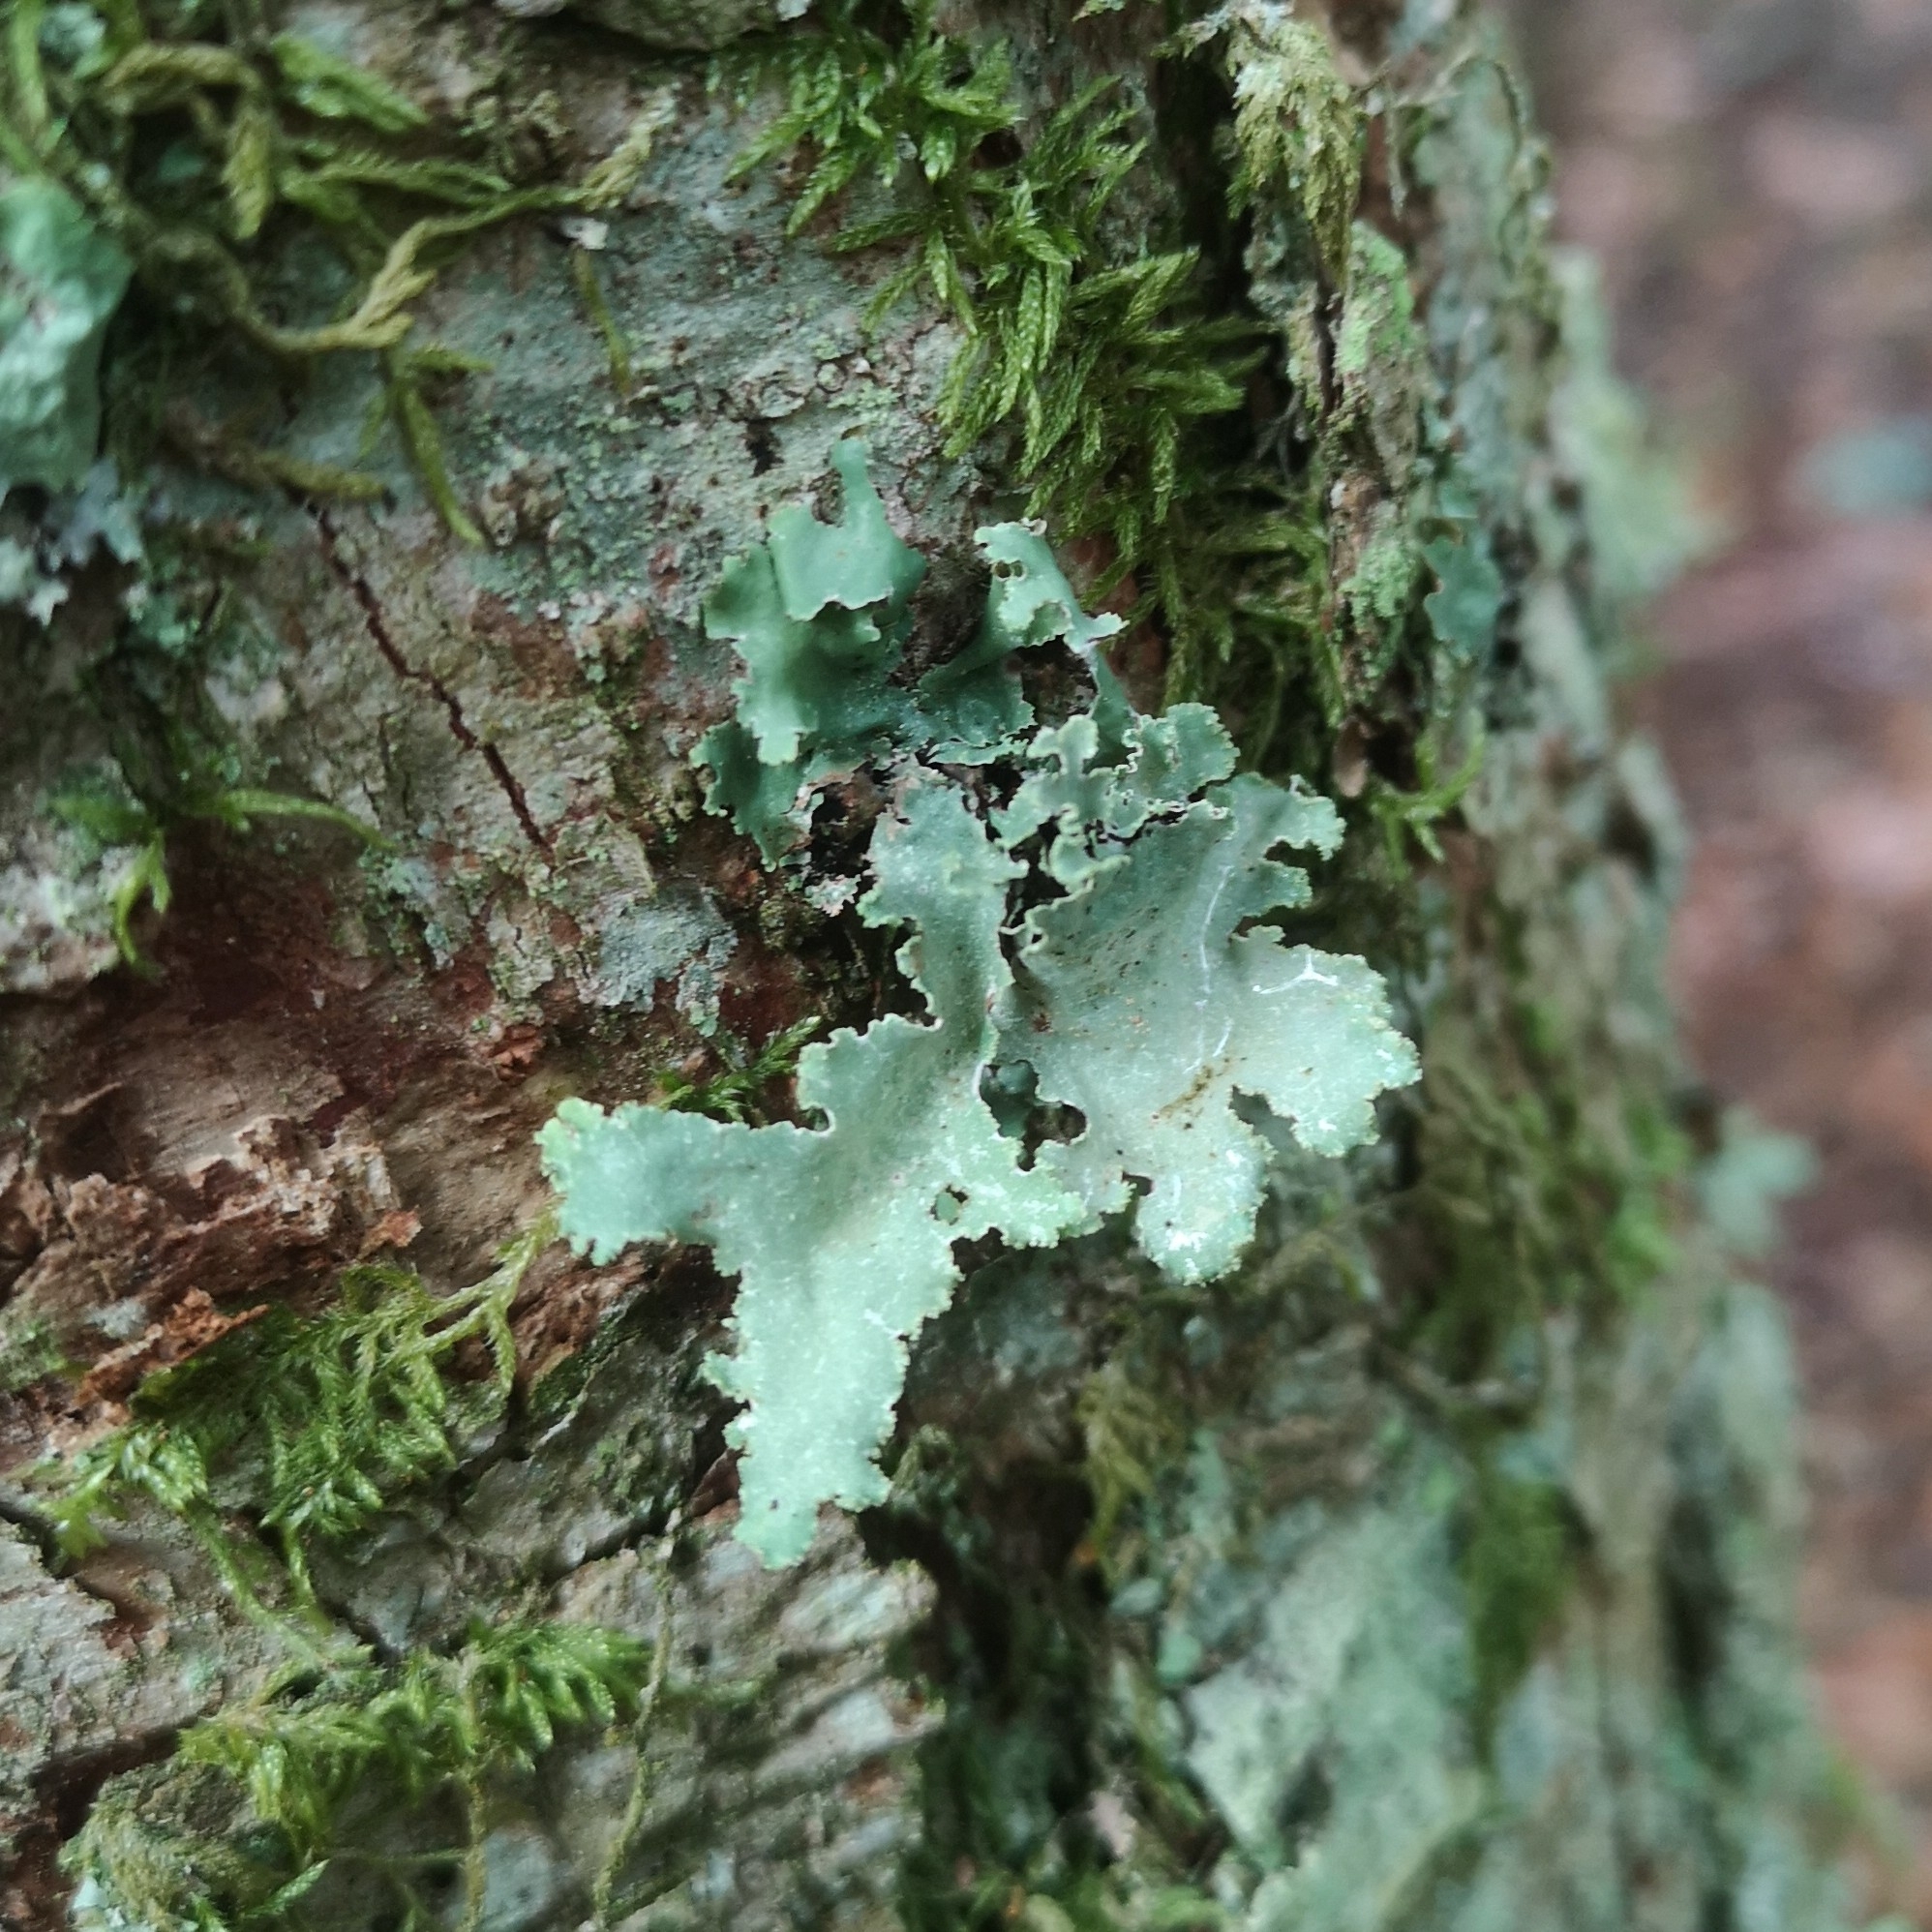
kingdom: Fungi
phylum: Ascomycota
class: Lecanoromycetes
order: Lecanorales
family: Parmeliaceae
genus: Platismatia
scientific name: Platismatia glauca
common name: Varied rag lichen
